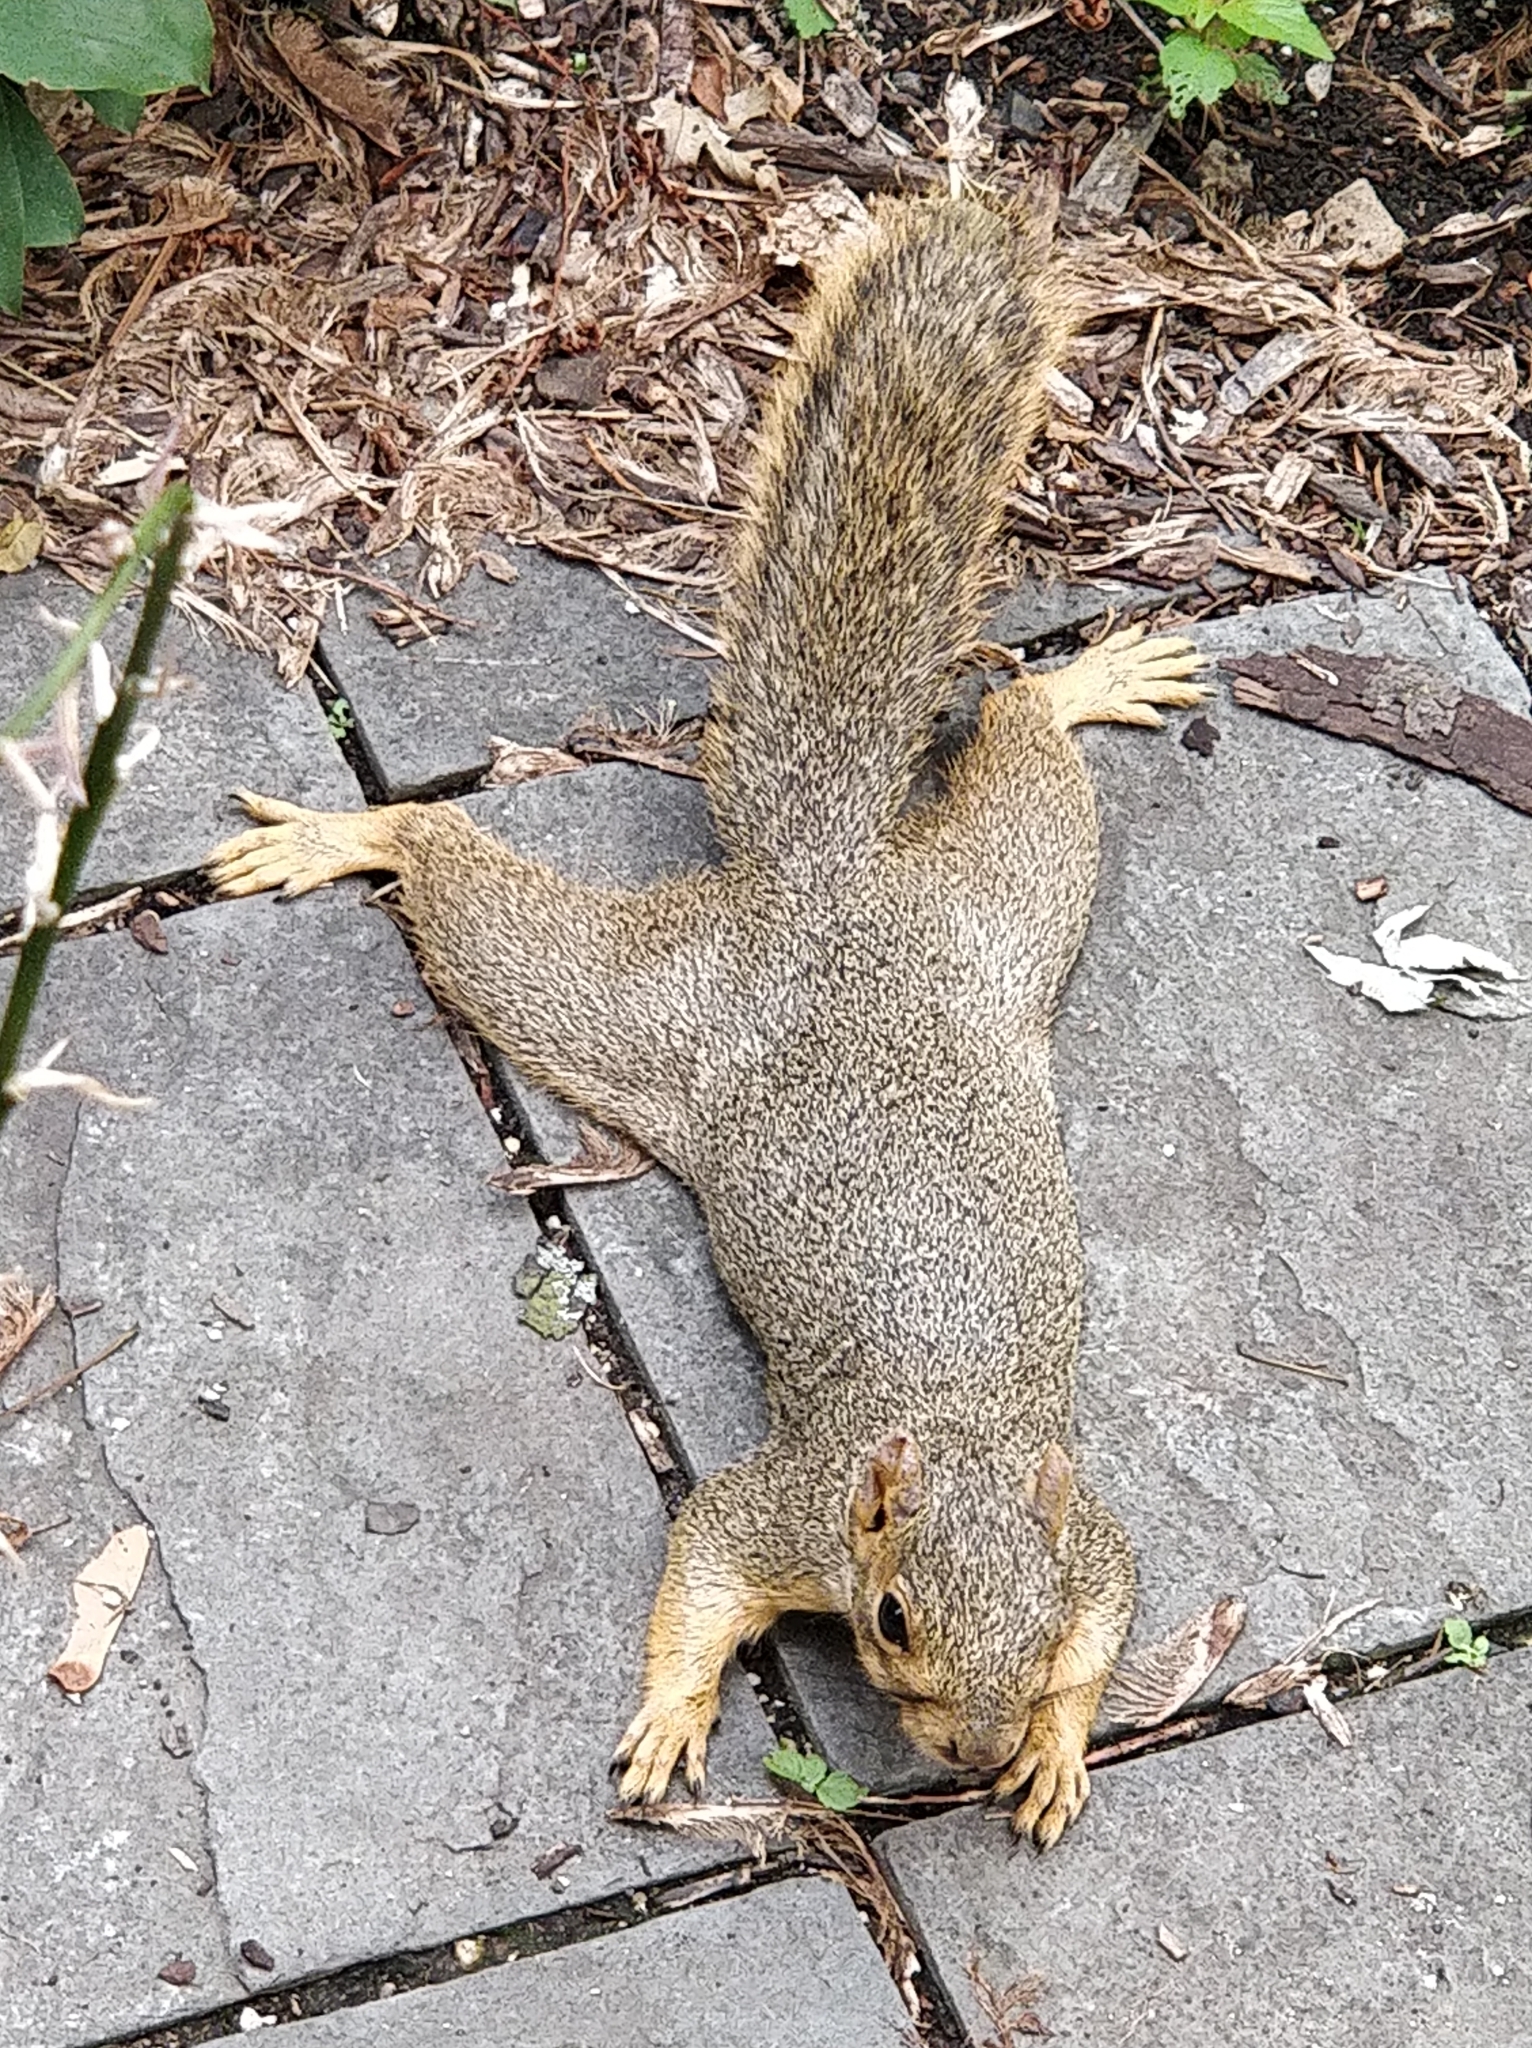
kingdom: Animalia
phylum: Chordata
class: Mammalia
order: Rodentia
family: Sciuridae
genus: Sciurus
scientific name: Sciurus niger
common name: Fox squirrel
